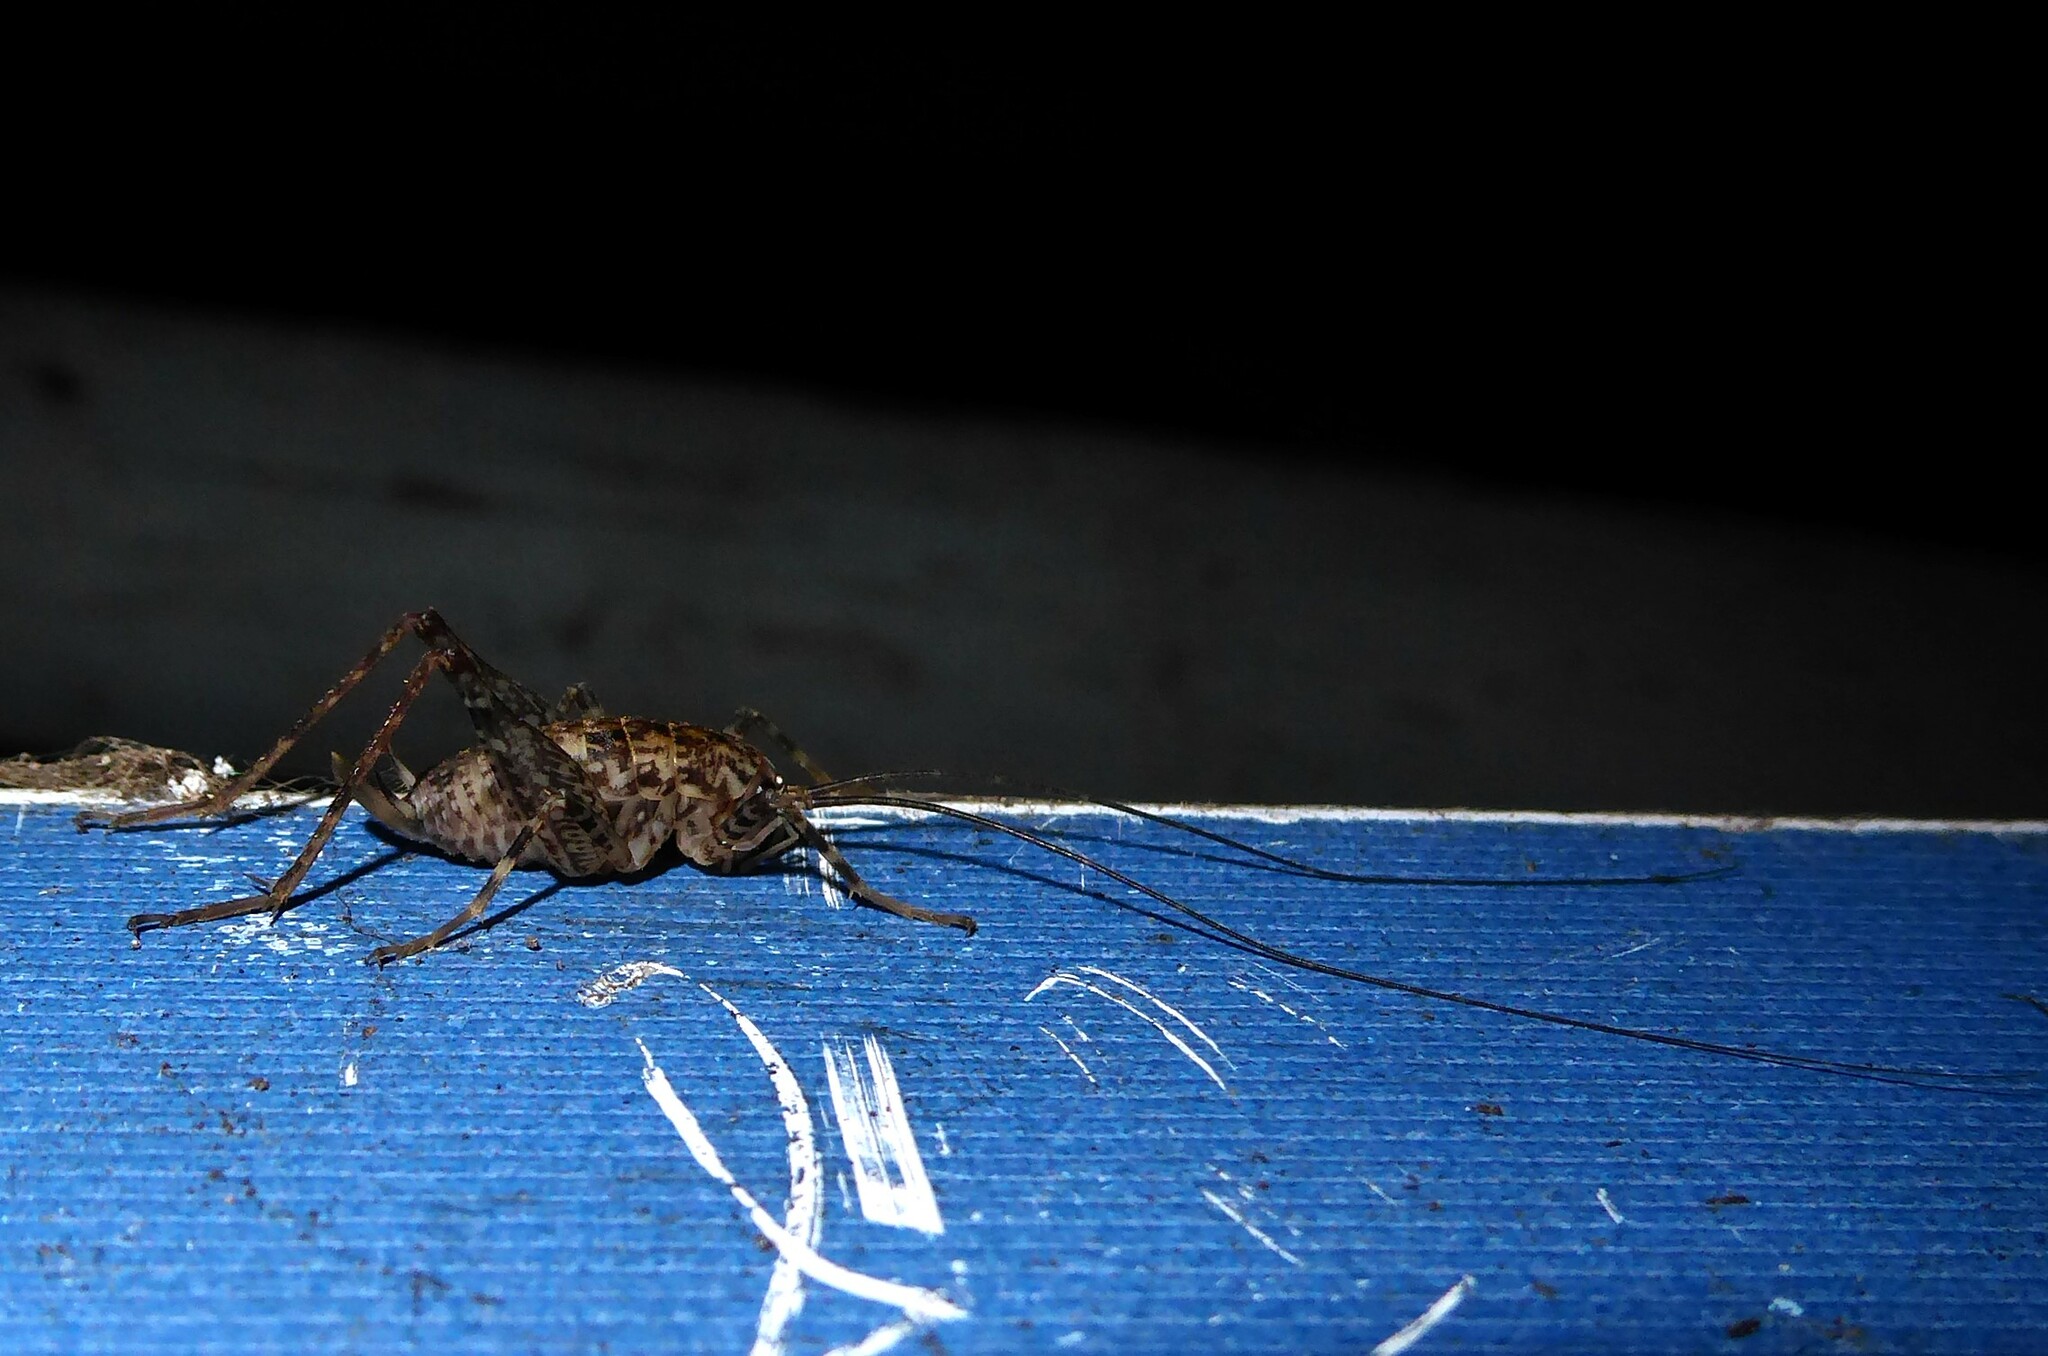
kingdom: Animalia
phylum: Arthropoda
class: Insecta
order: Orthoptera
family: Rhaphidophoridae
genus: Pleioplectron
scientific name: Pleioplectron simplex
